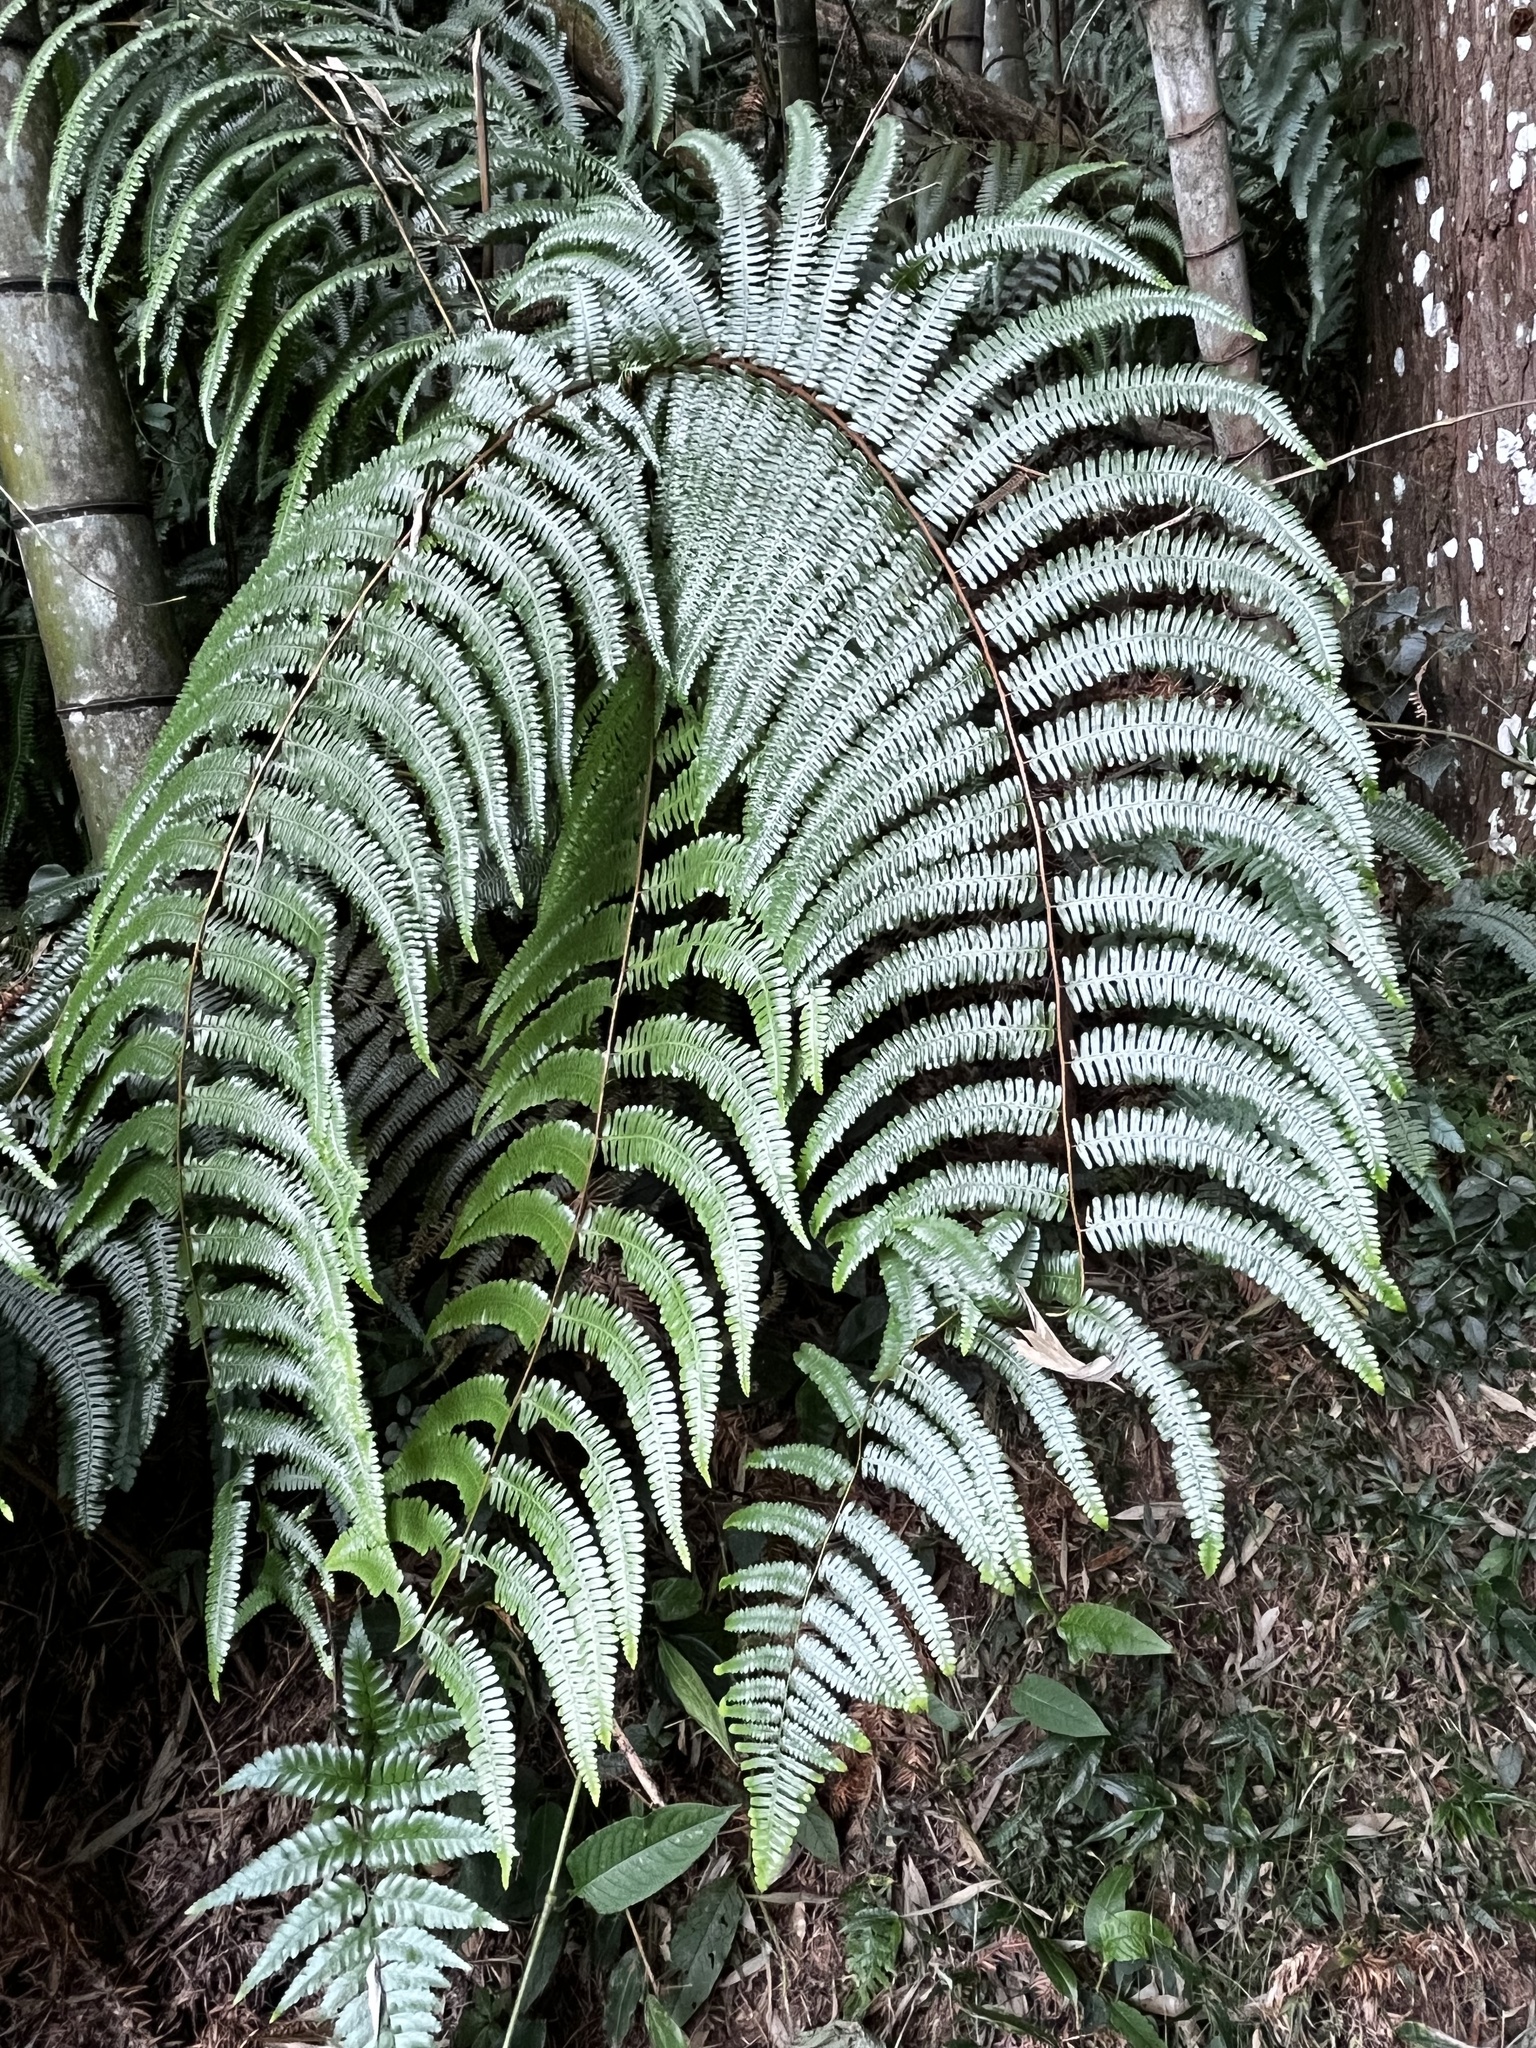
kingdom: Plantae
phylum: Tracheophyta
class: Polypodiopsida
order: Gleicheniales
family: Gleicheniaceae
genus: Diplopterygium
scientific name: Diplopterygium blotianum
